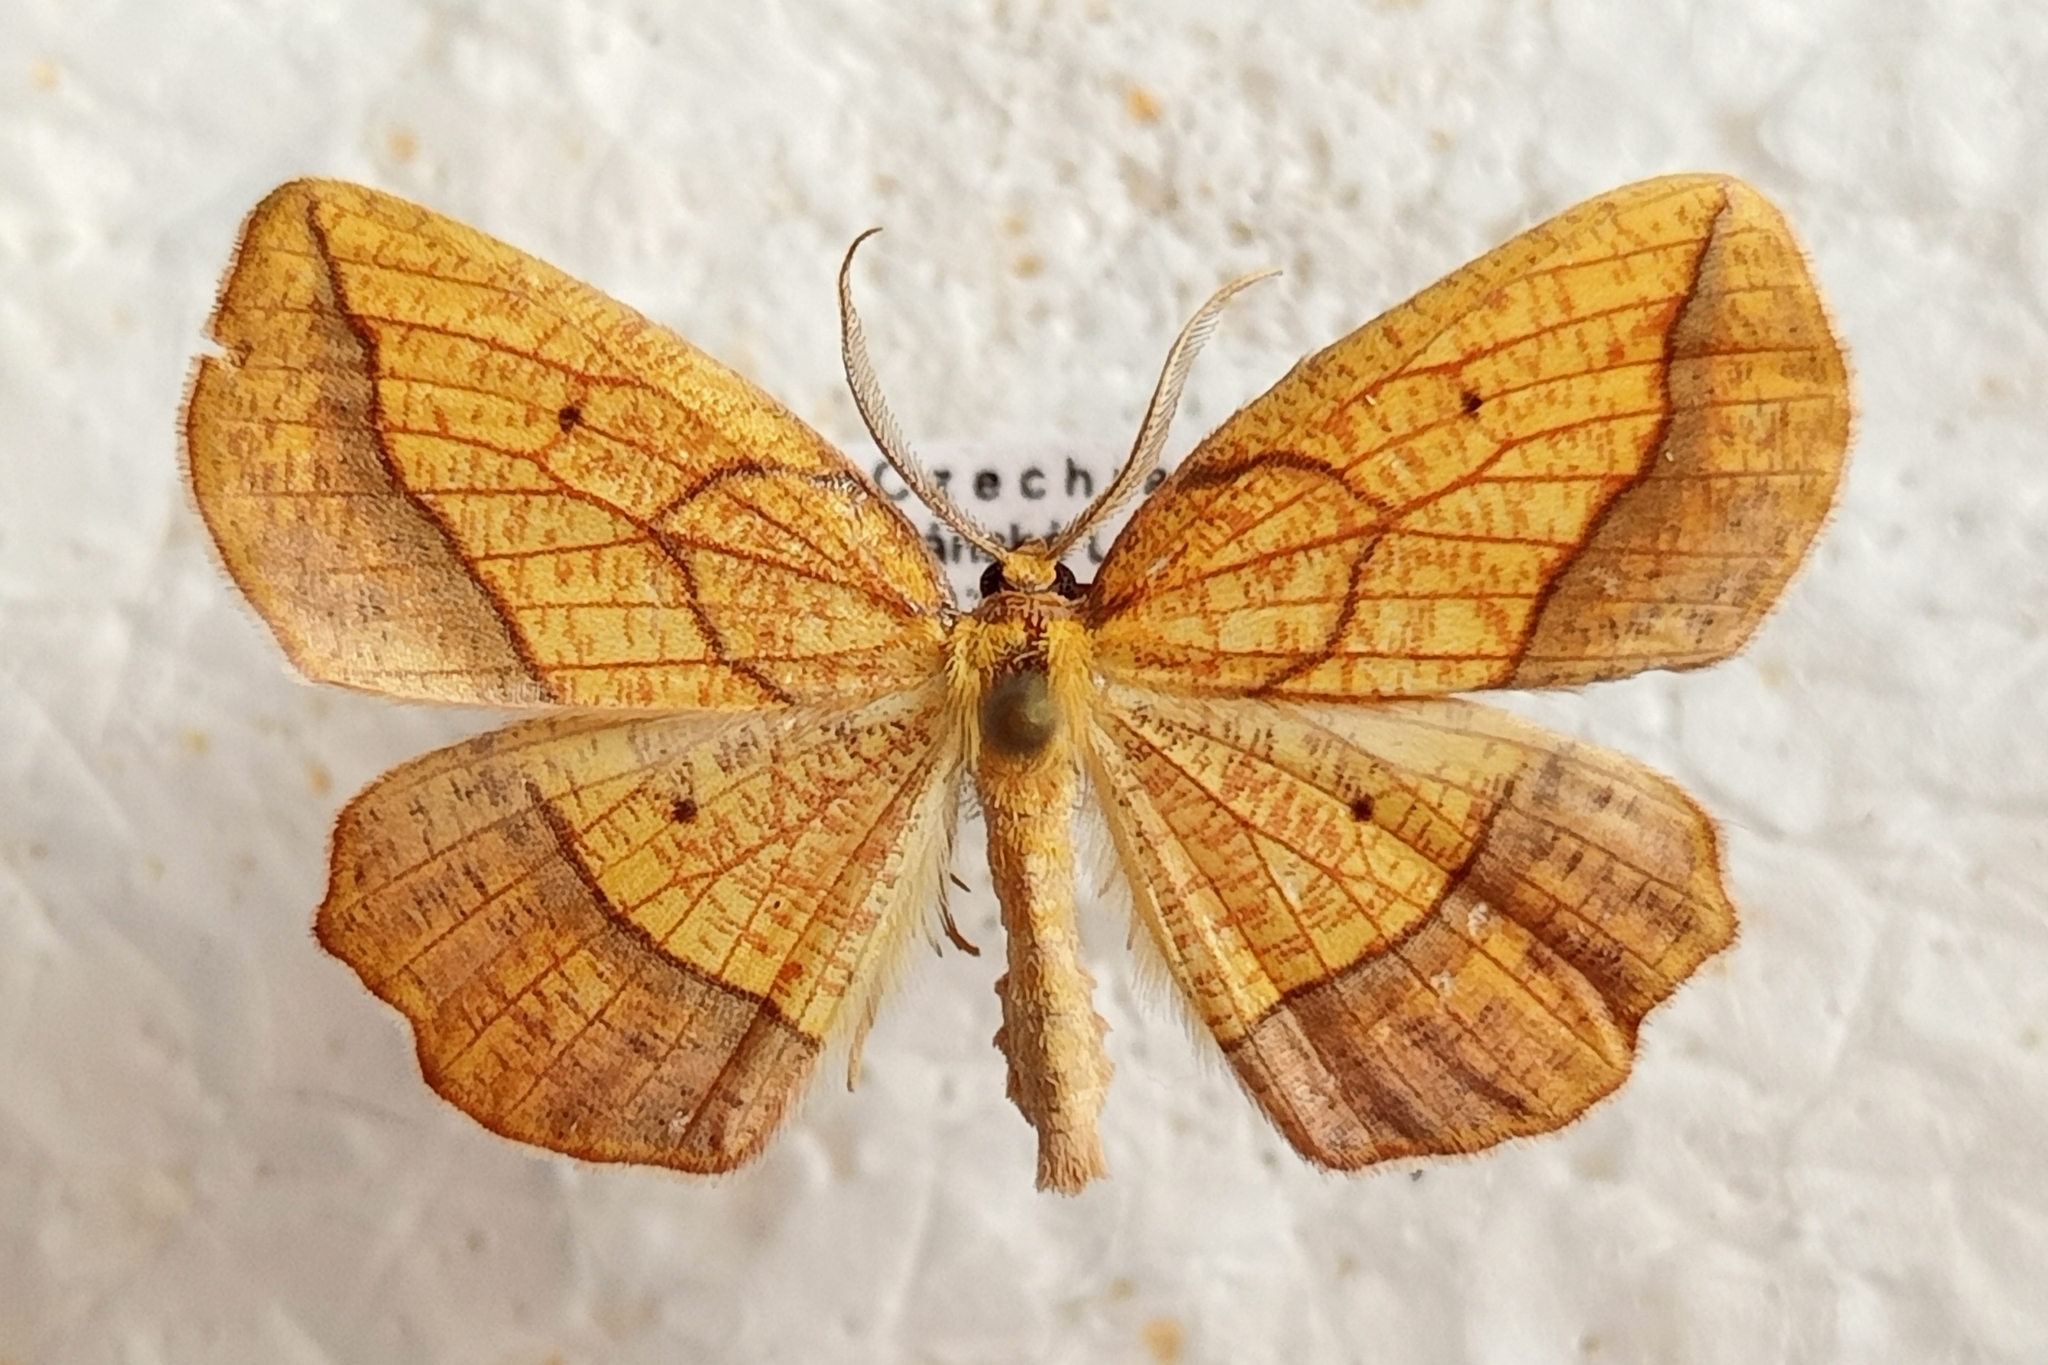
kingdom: Animalia
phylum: Arthropoda
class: Insecta
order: Lepidoptera
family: Geometridae
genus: Epione
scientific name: Epione repandaria
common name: Bordered beauty
